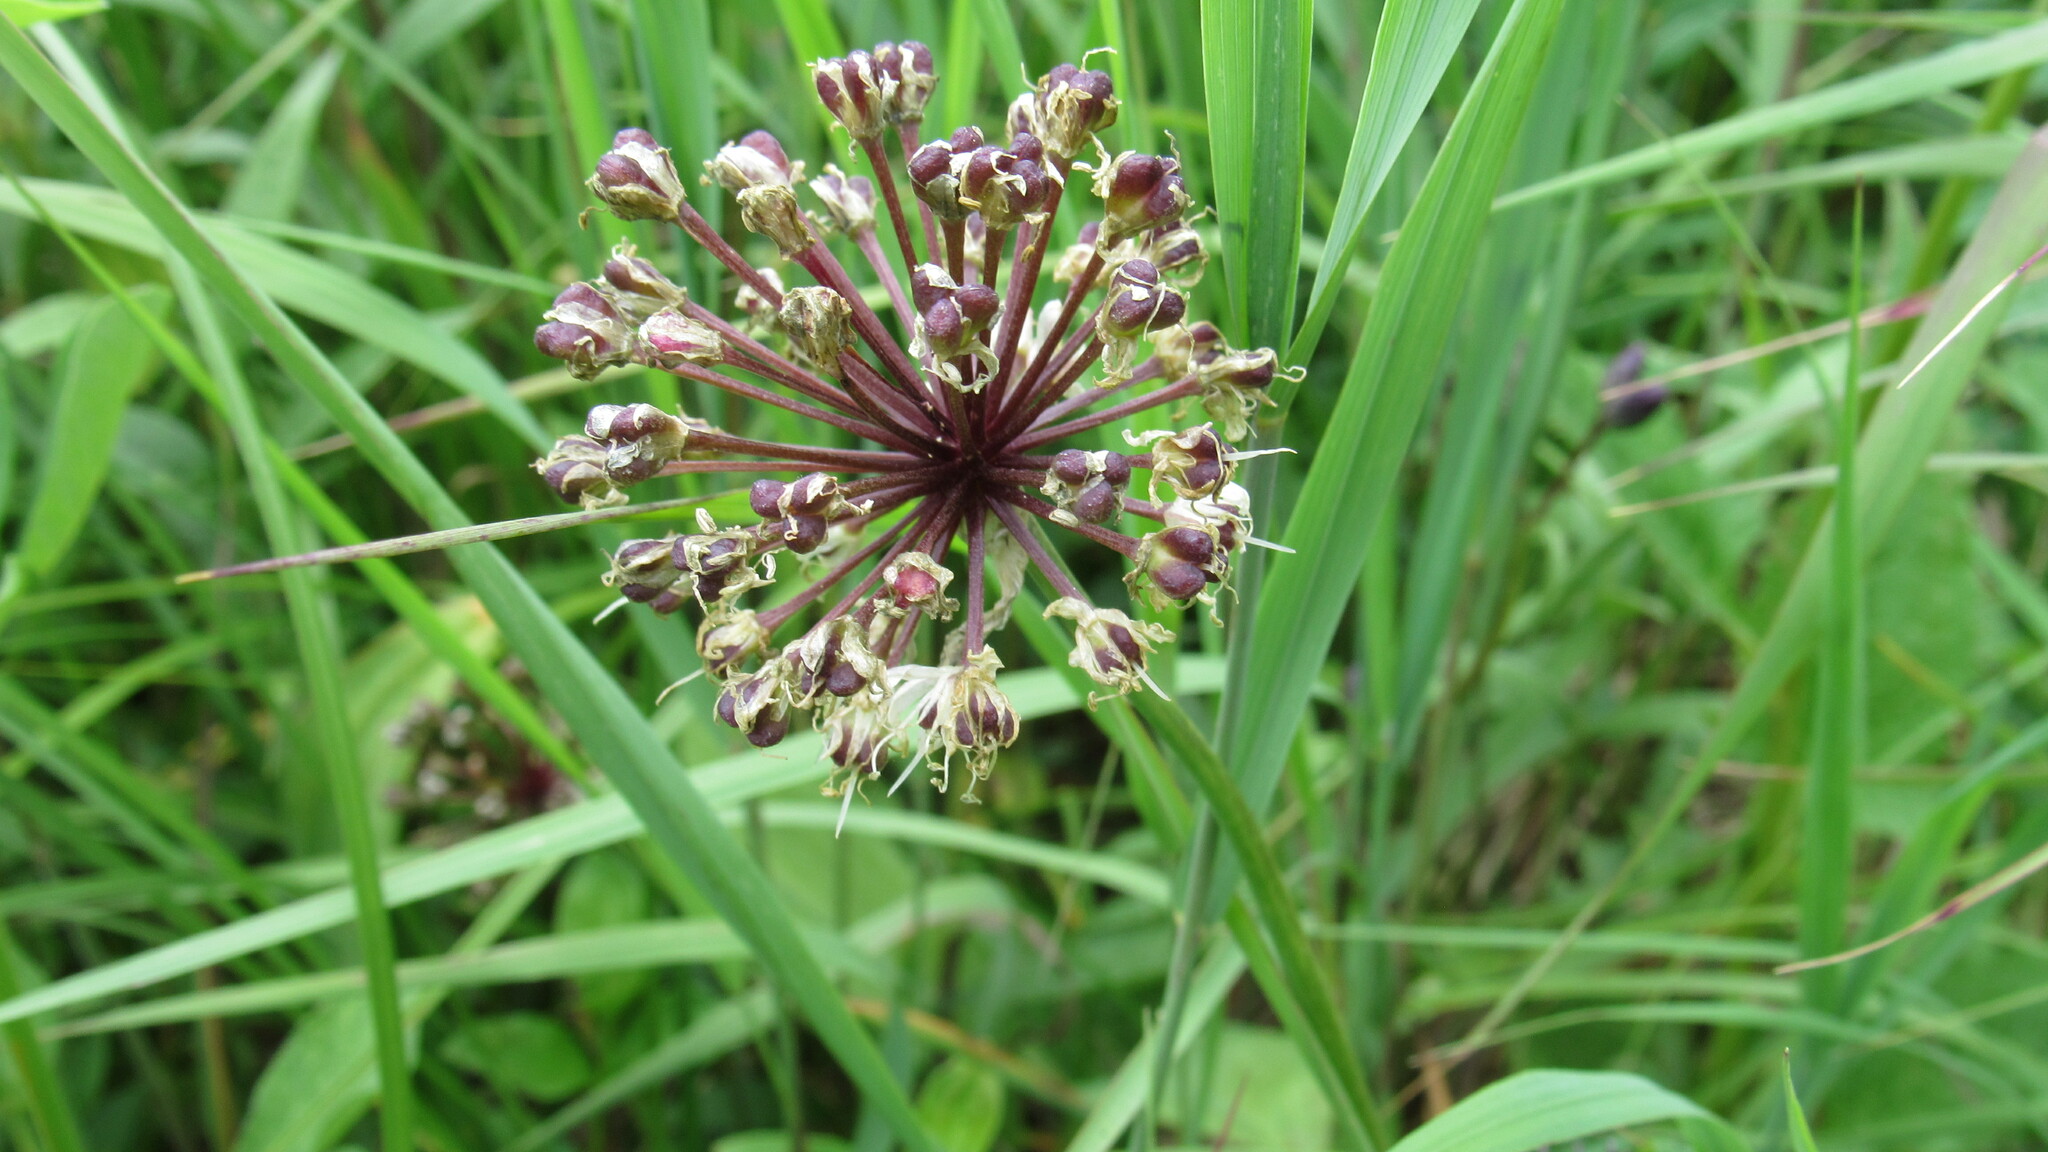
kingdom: Plantae
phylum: Tracheophyta
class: Liliopsida
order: Asparagales
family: Amaryllidaceae
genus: Allium
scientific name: Allium ochotense
